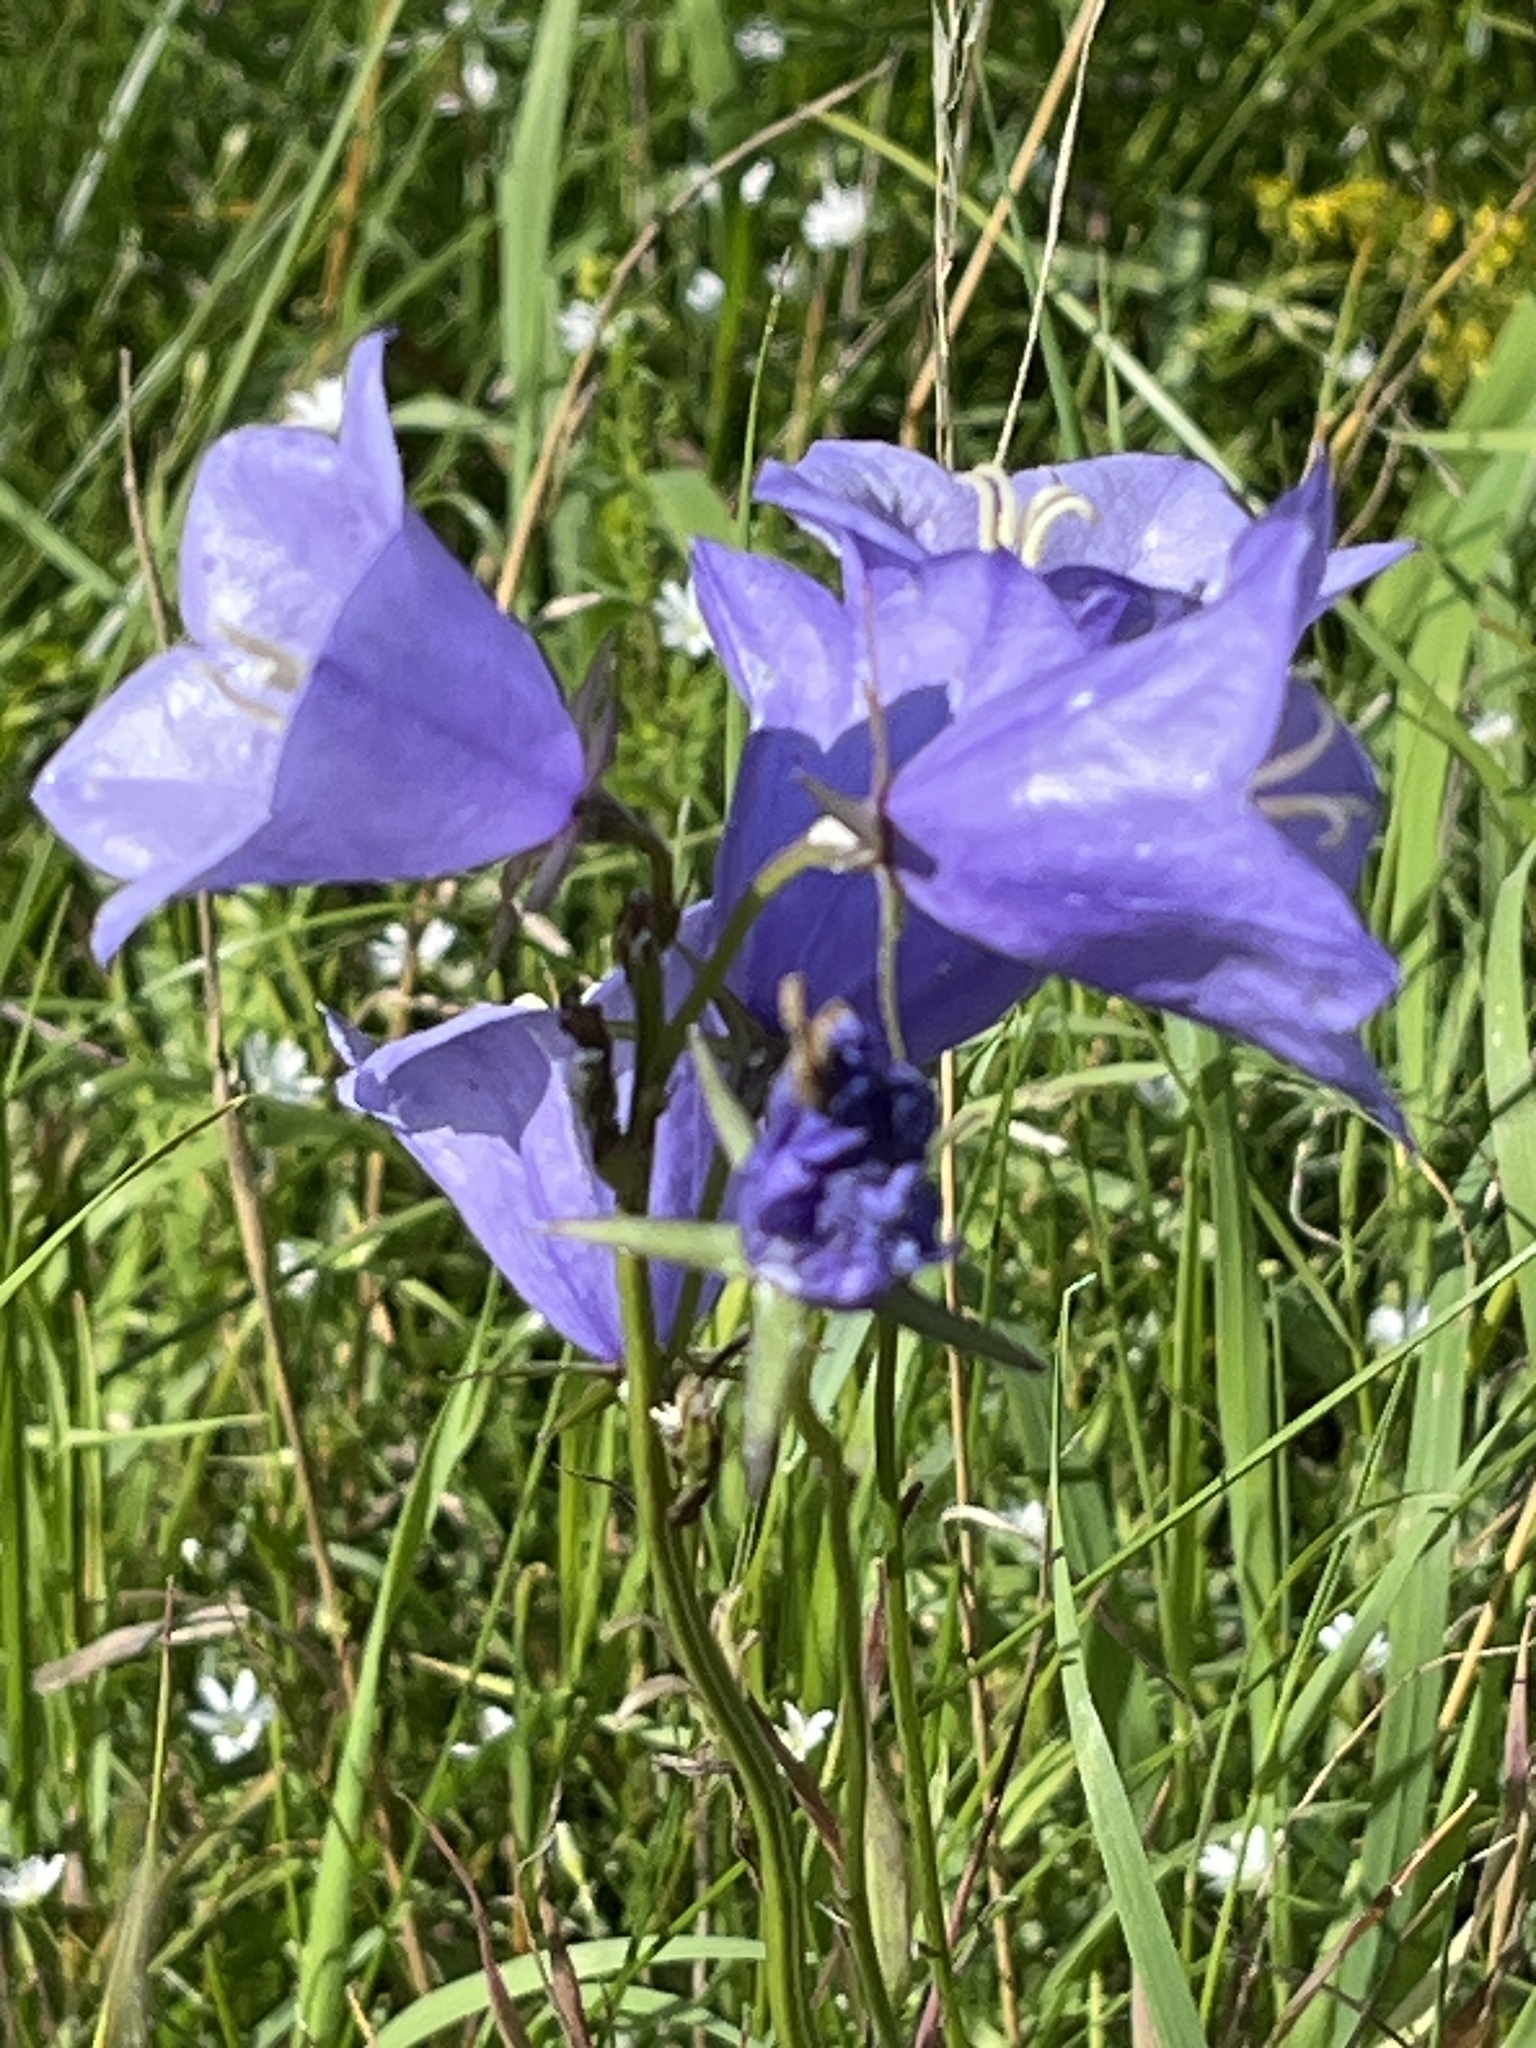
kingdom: Plantae
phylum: Tracheophyta
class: Magnoliopsida
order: Asterales
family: Campanulaceae
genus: Campanula
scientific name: Campanula persicifolia
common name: Peach-leaved bellflower
